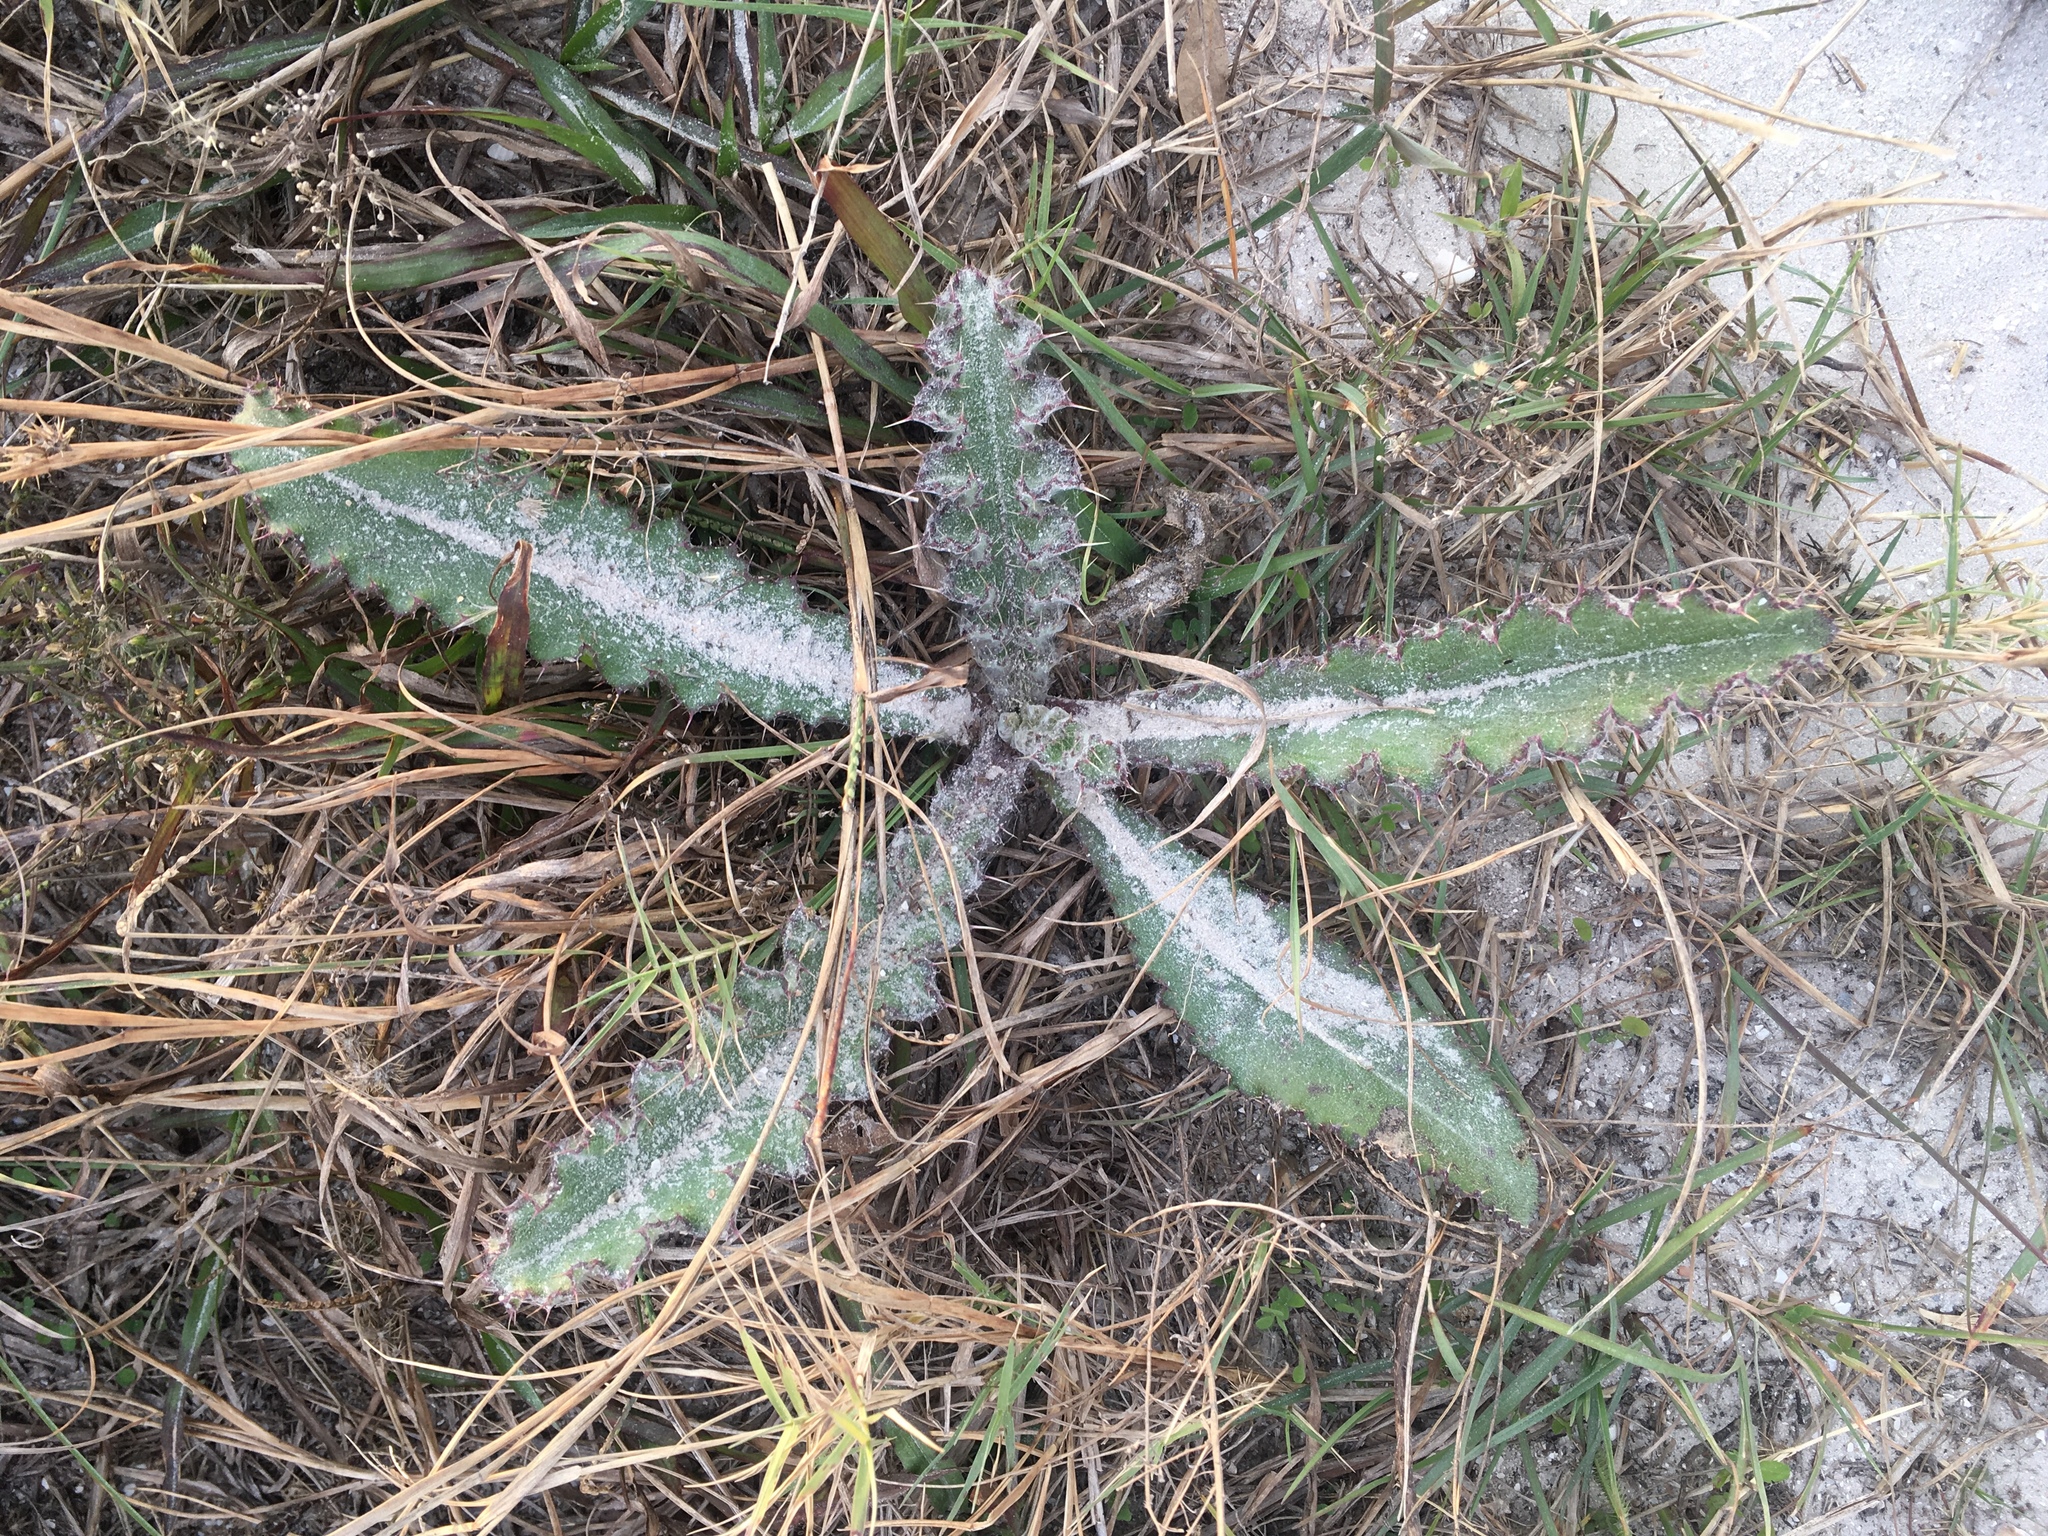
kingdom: Plantae
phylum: Tracheophyta
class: Magnoliopsida
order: Asterales
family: Asteraceae
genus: Cirsium
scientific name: Cirsium horridulum
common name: Bristly thistle
